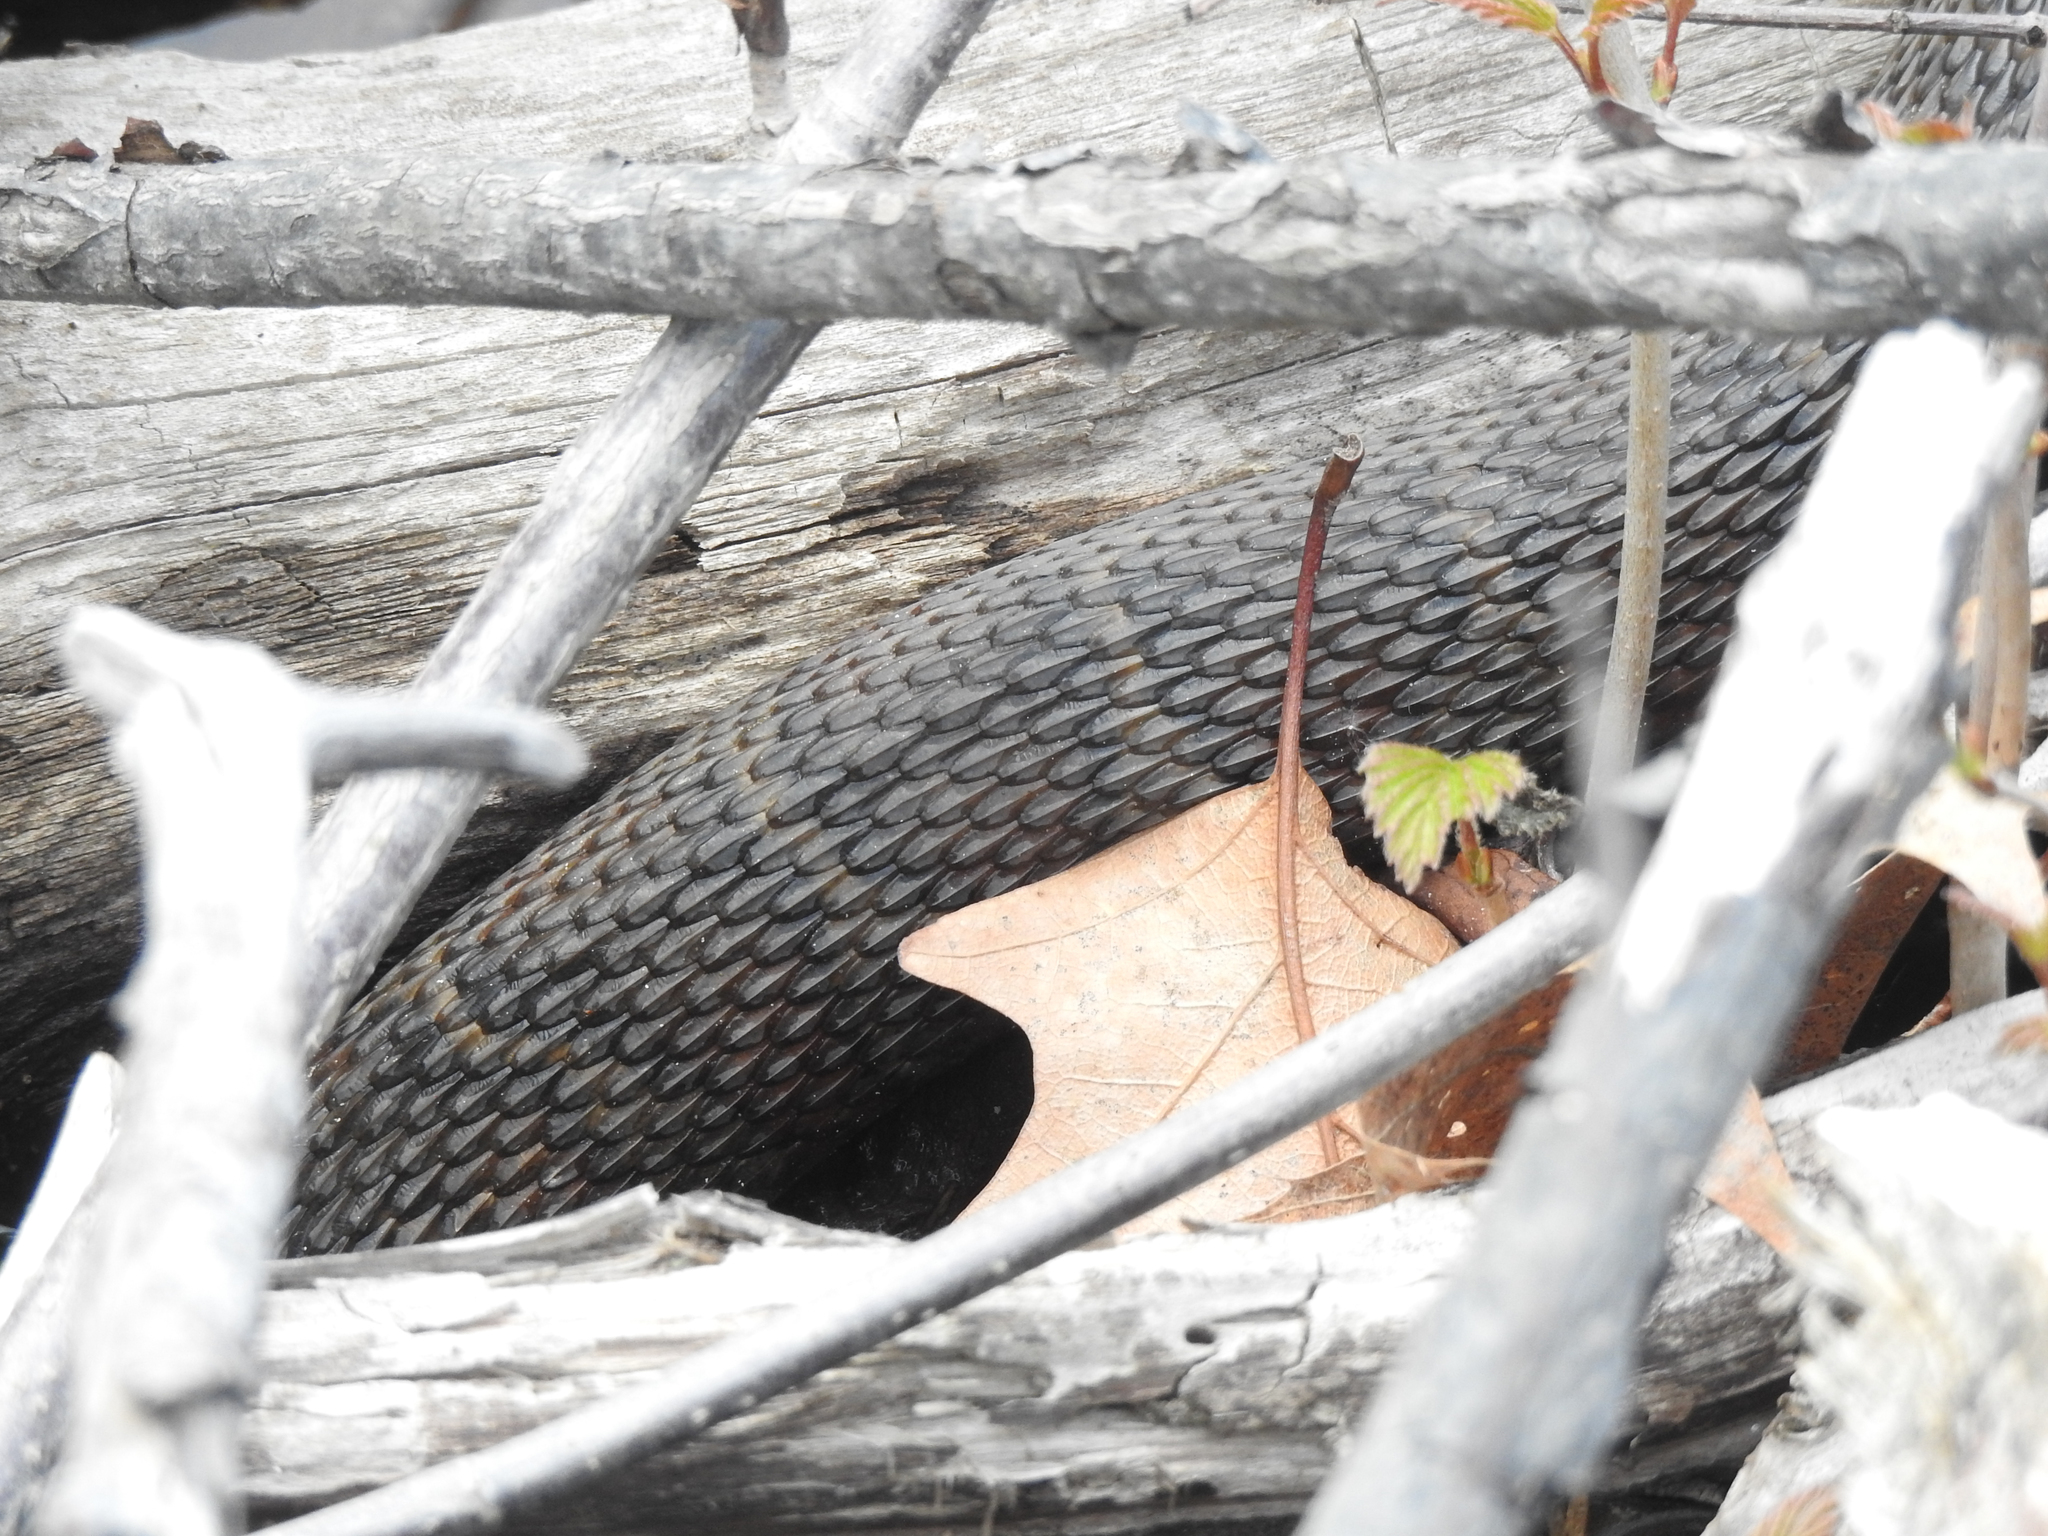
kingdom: Animalia
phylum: Chordata
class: Squamata
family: Colubridae
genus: Nerodia
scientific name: Nerodia sipedon
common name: Northern water snake
